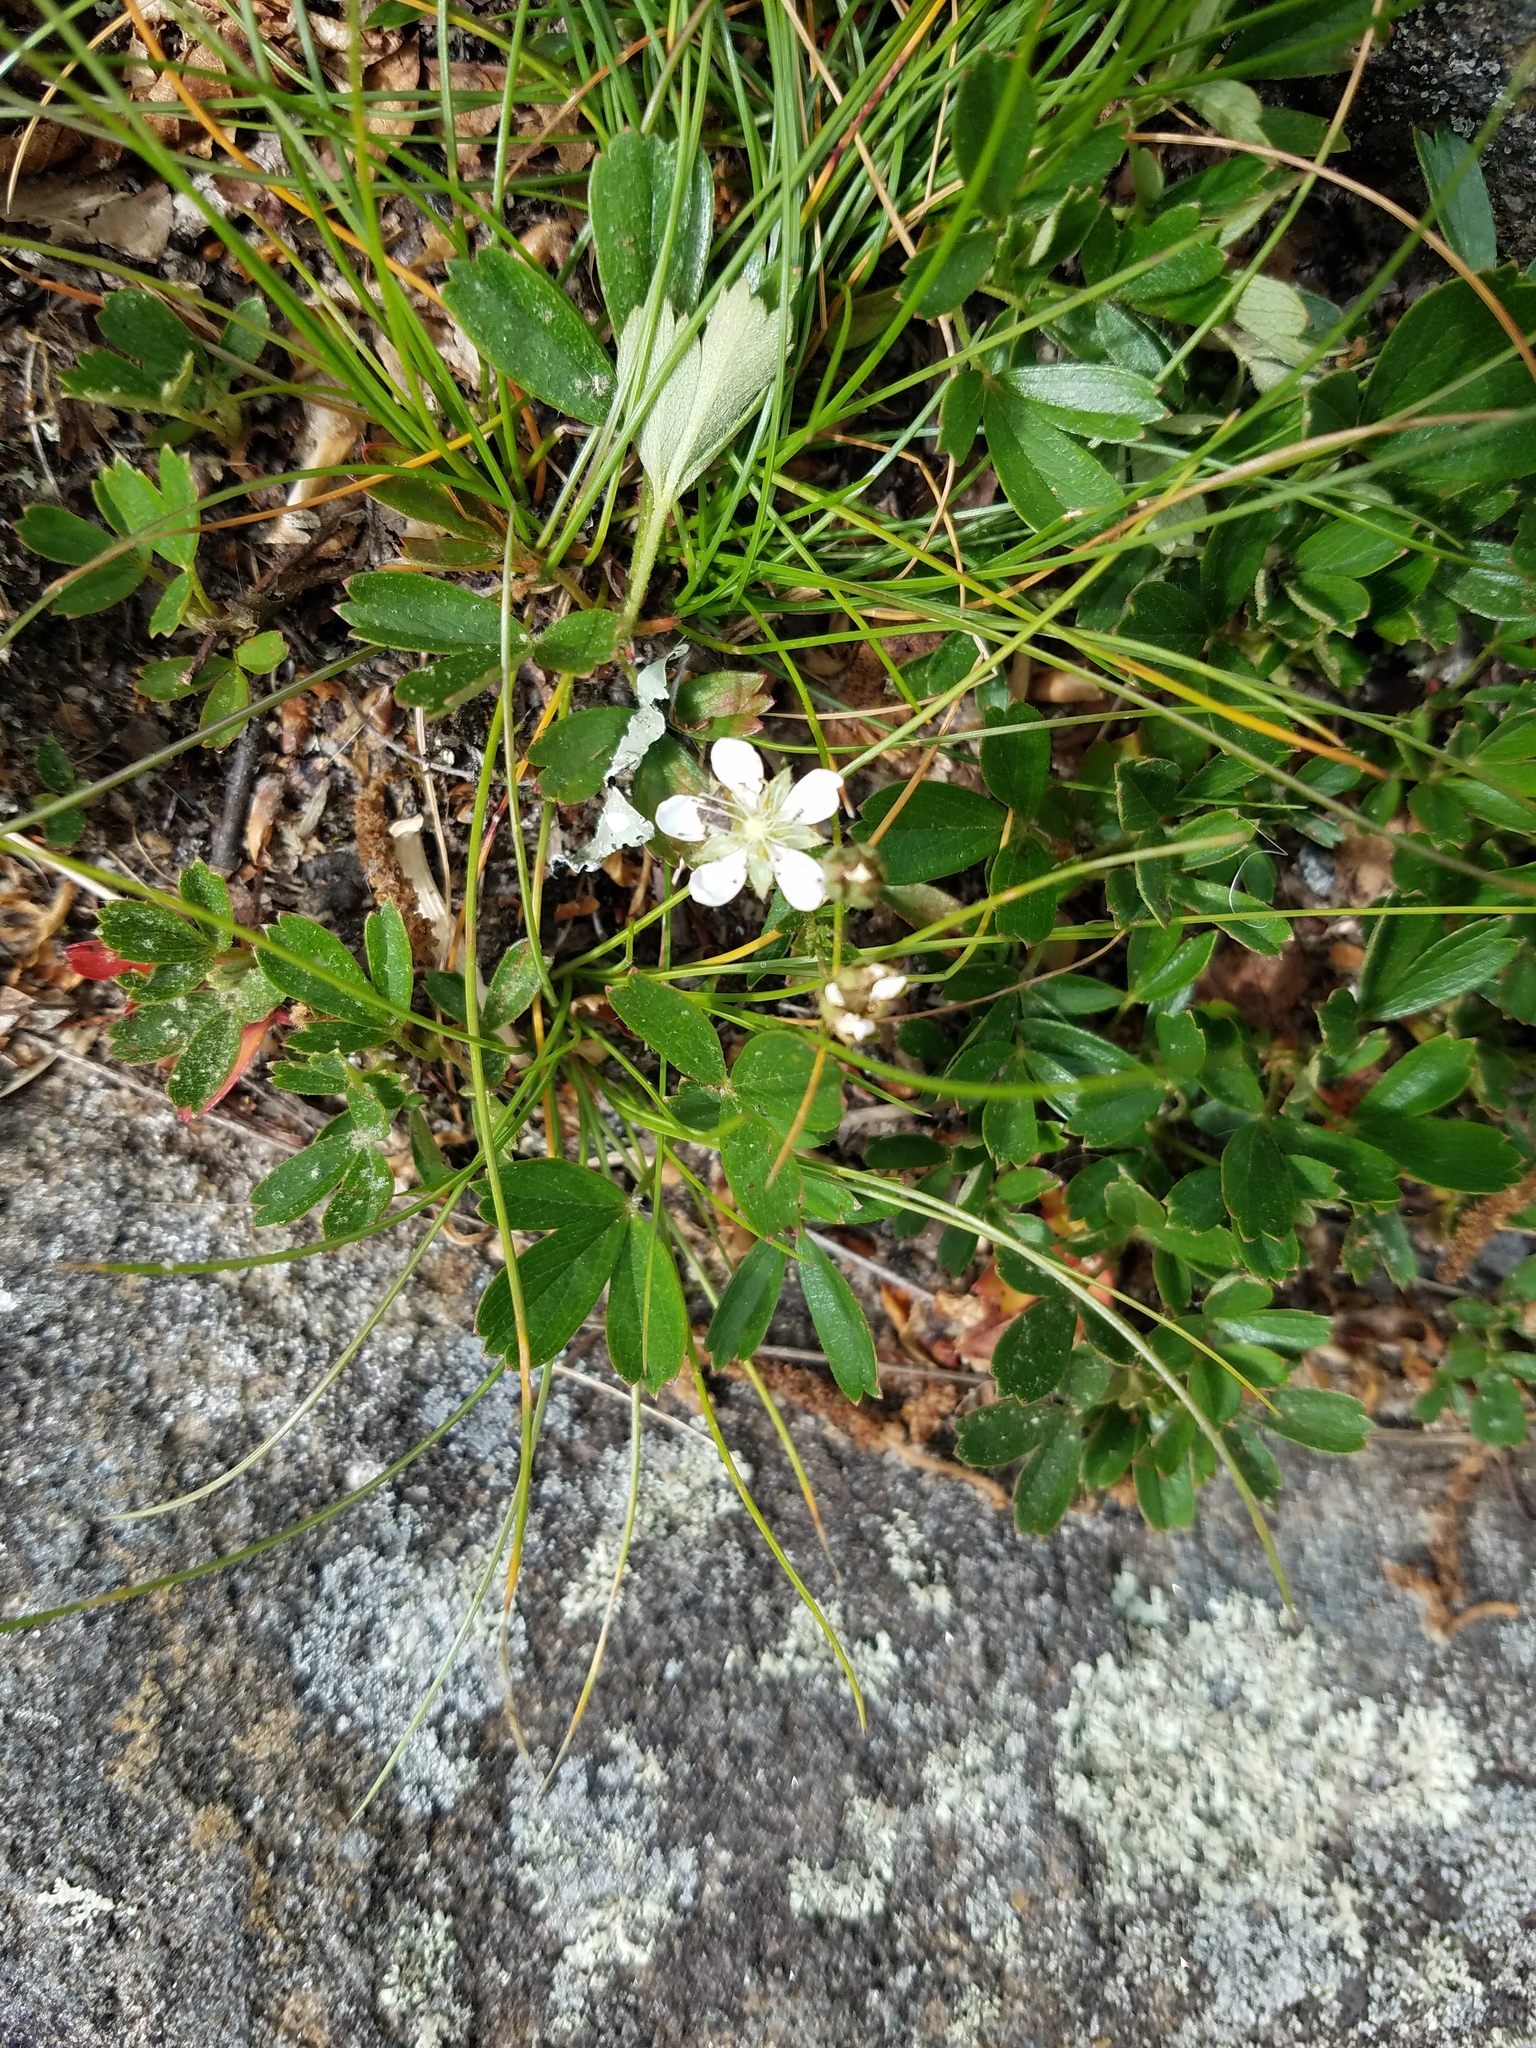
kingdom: Plantae
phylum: Tracheophyta
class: Magnoliopsida
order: Rosales
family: Rosaceae
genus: Sibbaldia
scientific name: Sibbaldia tridentata
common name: Three-toothed cinquefoil
